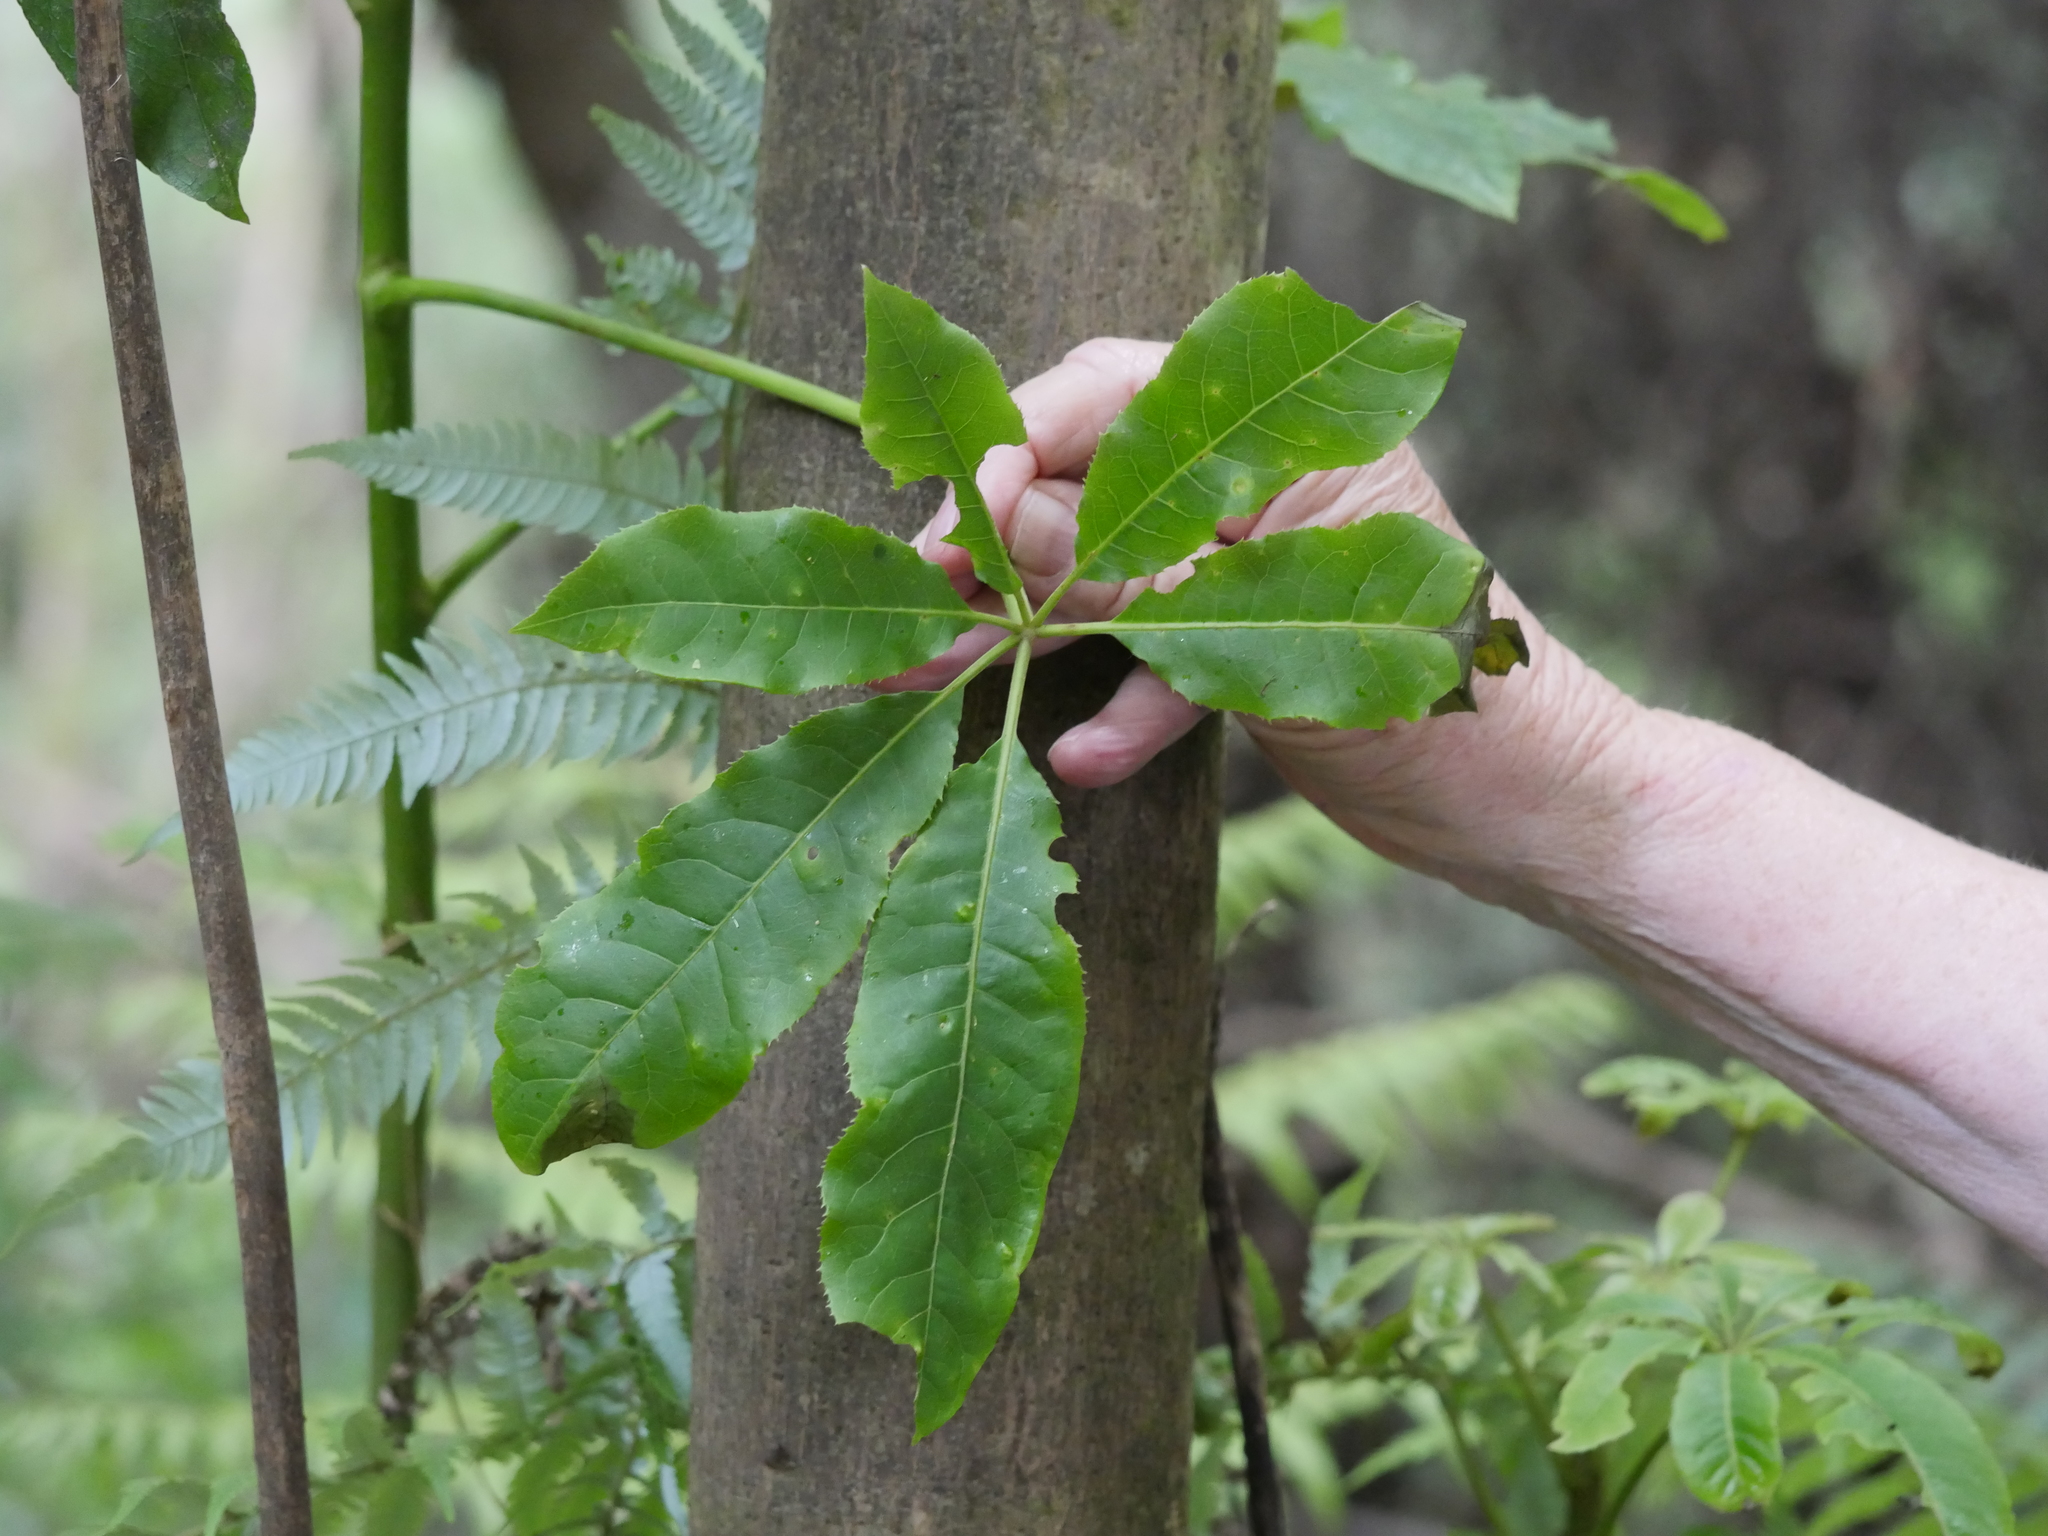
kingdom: Plantae
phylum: Tracheophyta
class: Magnoliopsida
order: Apiales
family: Araliaceae
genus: Schefflera
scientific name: Schefflera digitata
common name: Pate
